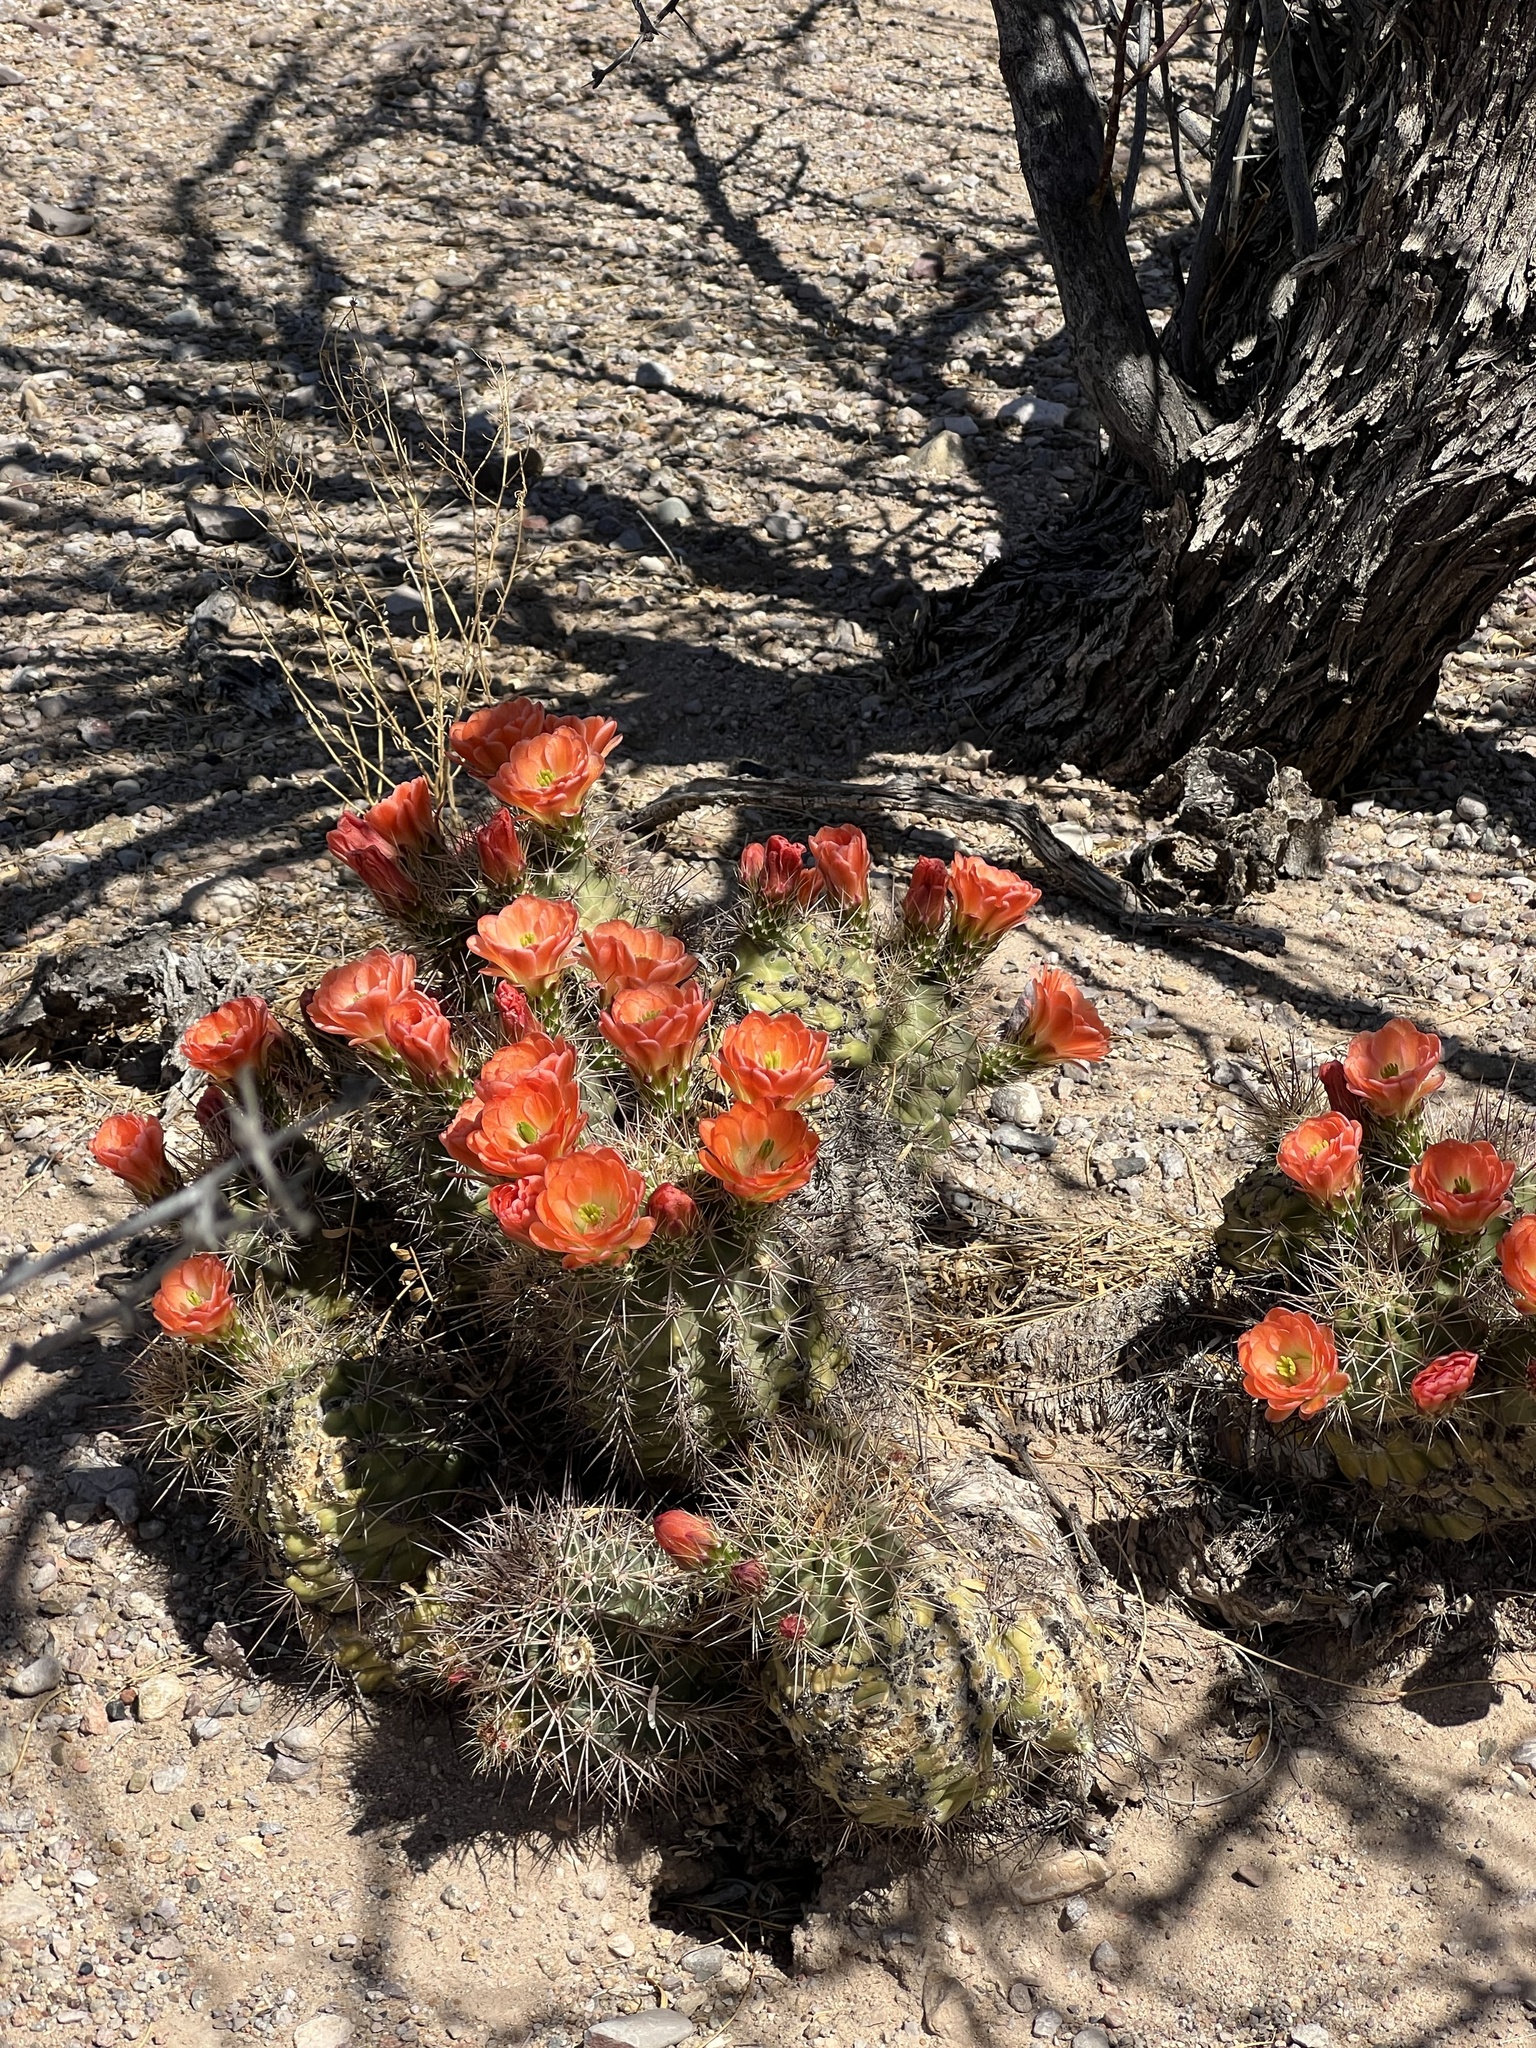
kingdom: Plantae
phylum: Tracheophyta
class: Magnoliopsida
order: Caryophyllales
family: Cactaceae
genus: Echinocereus
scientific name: Echinocereus coccineus
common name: Scarlet hedgehog cactus
